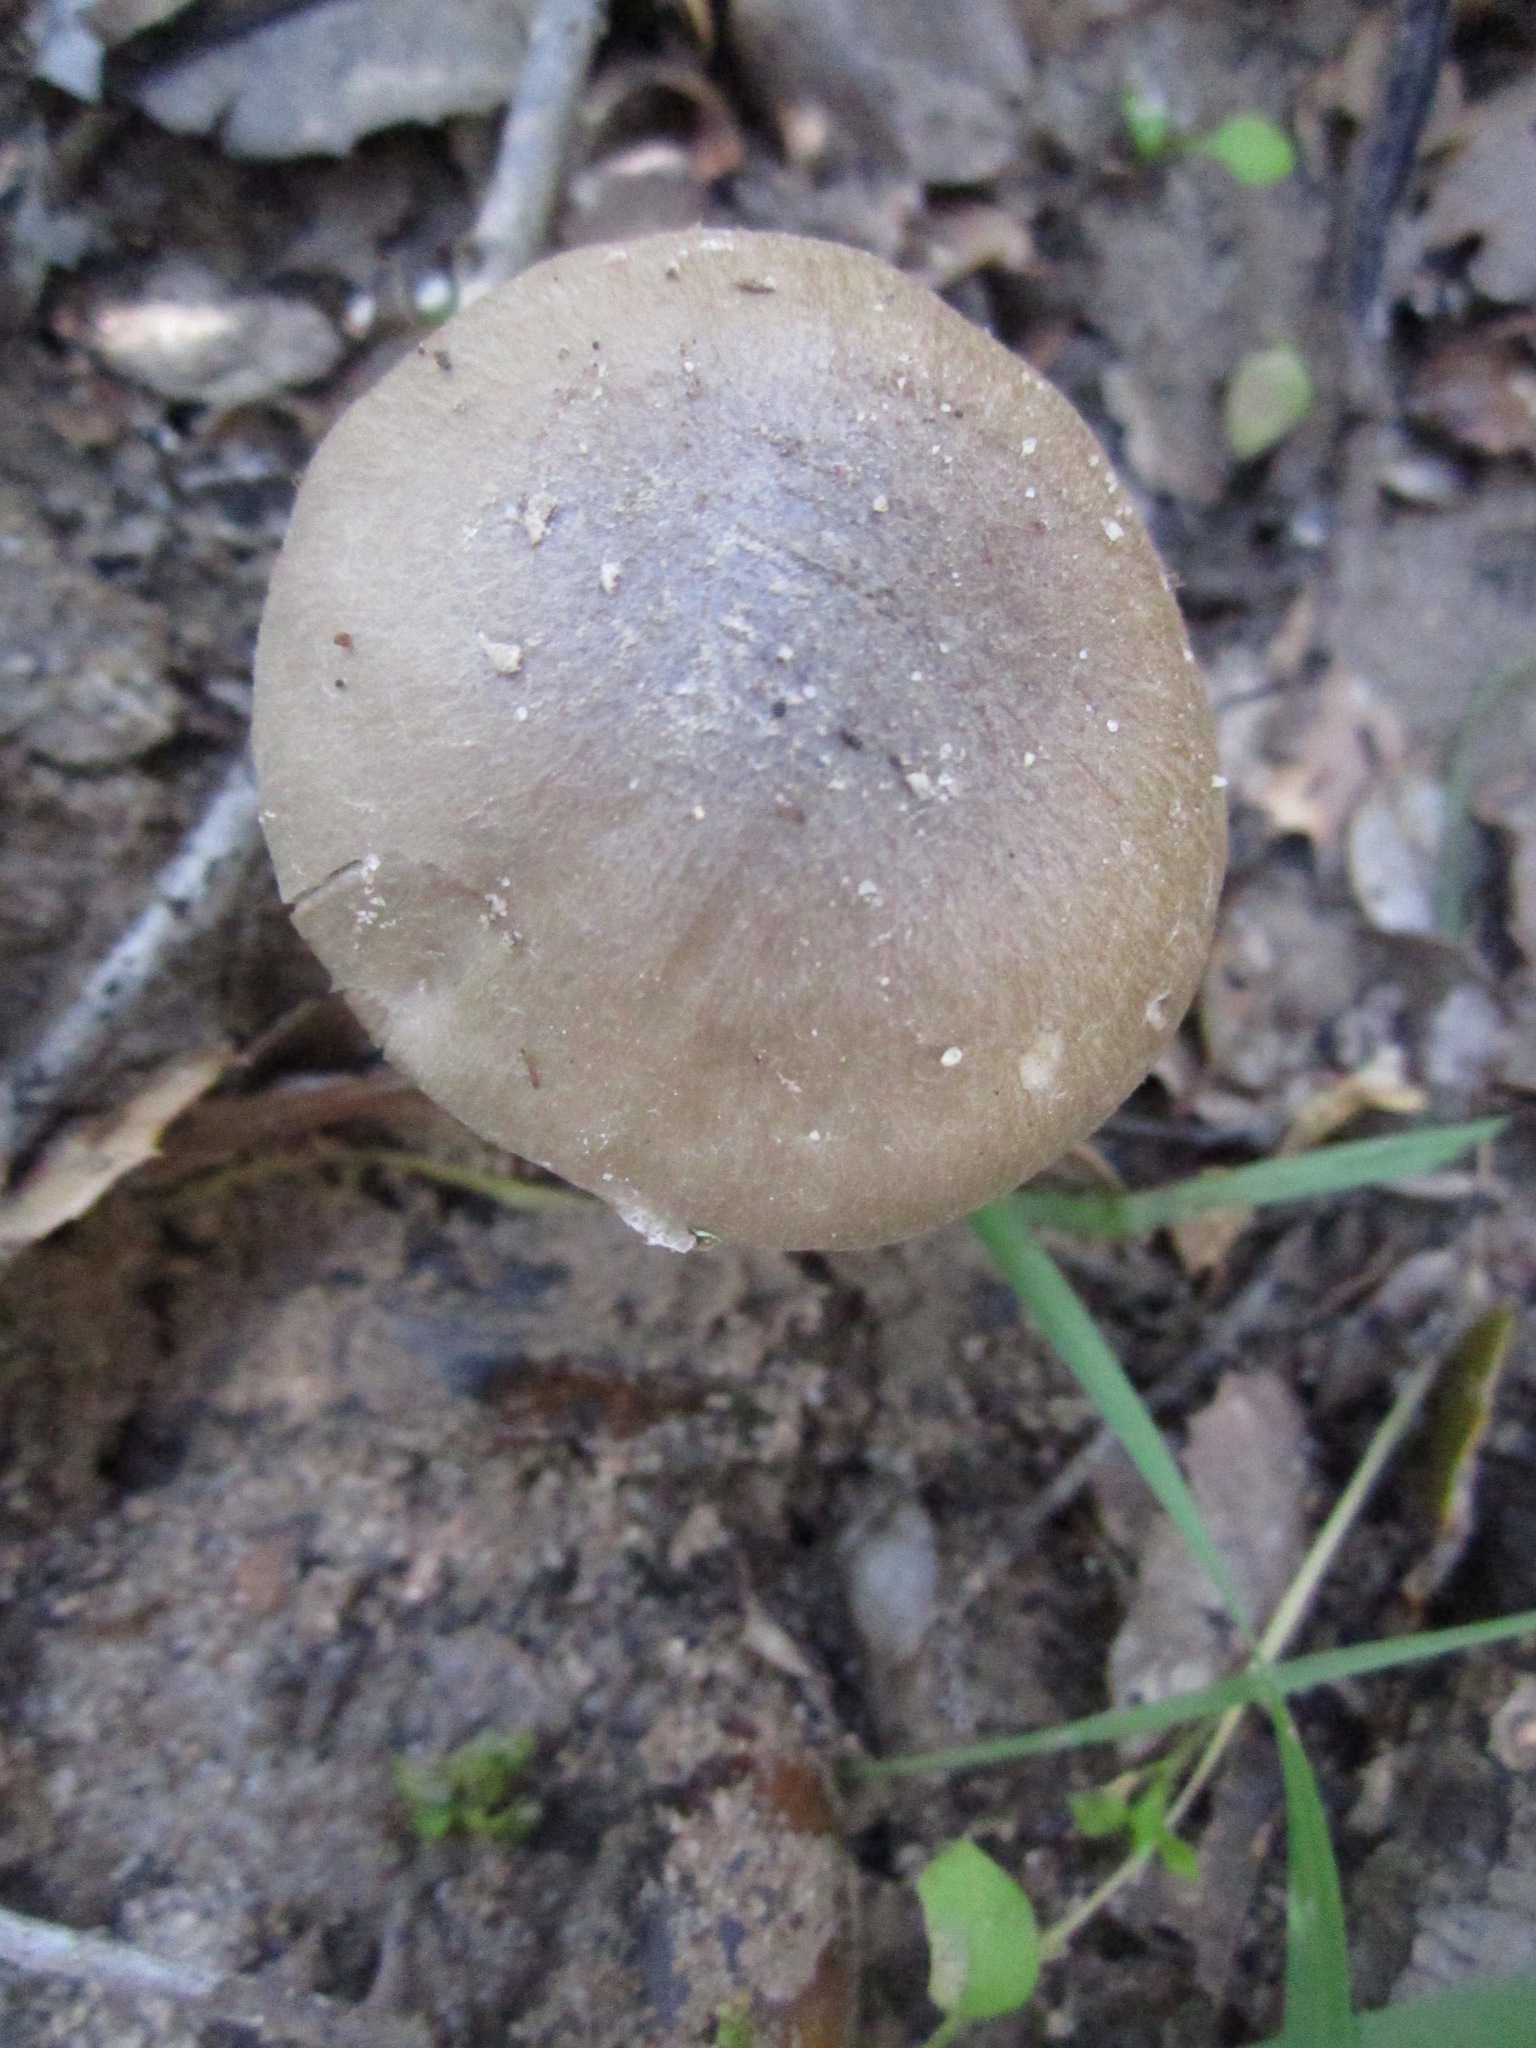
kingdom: Fungi
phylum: Basidiomycota
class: Agaricomycetes
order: Agaricales
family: Psathyrellaceae
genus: Psathyrella
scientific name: Psathyrella uliginicola
